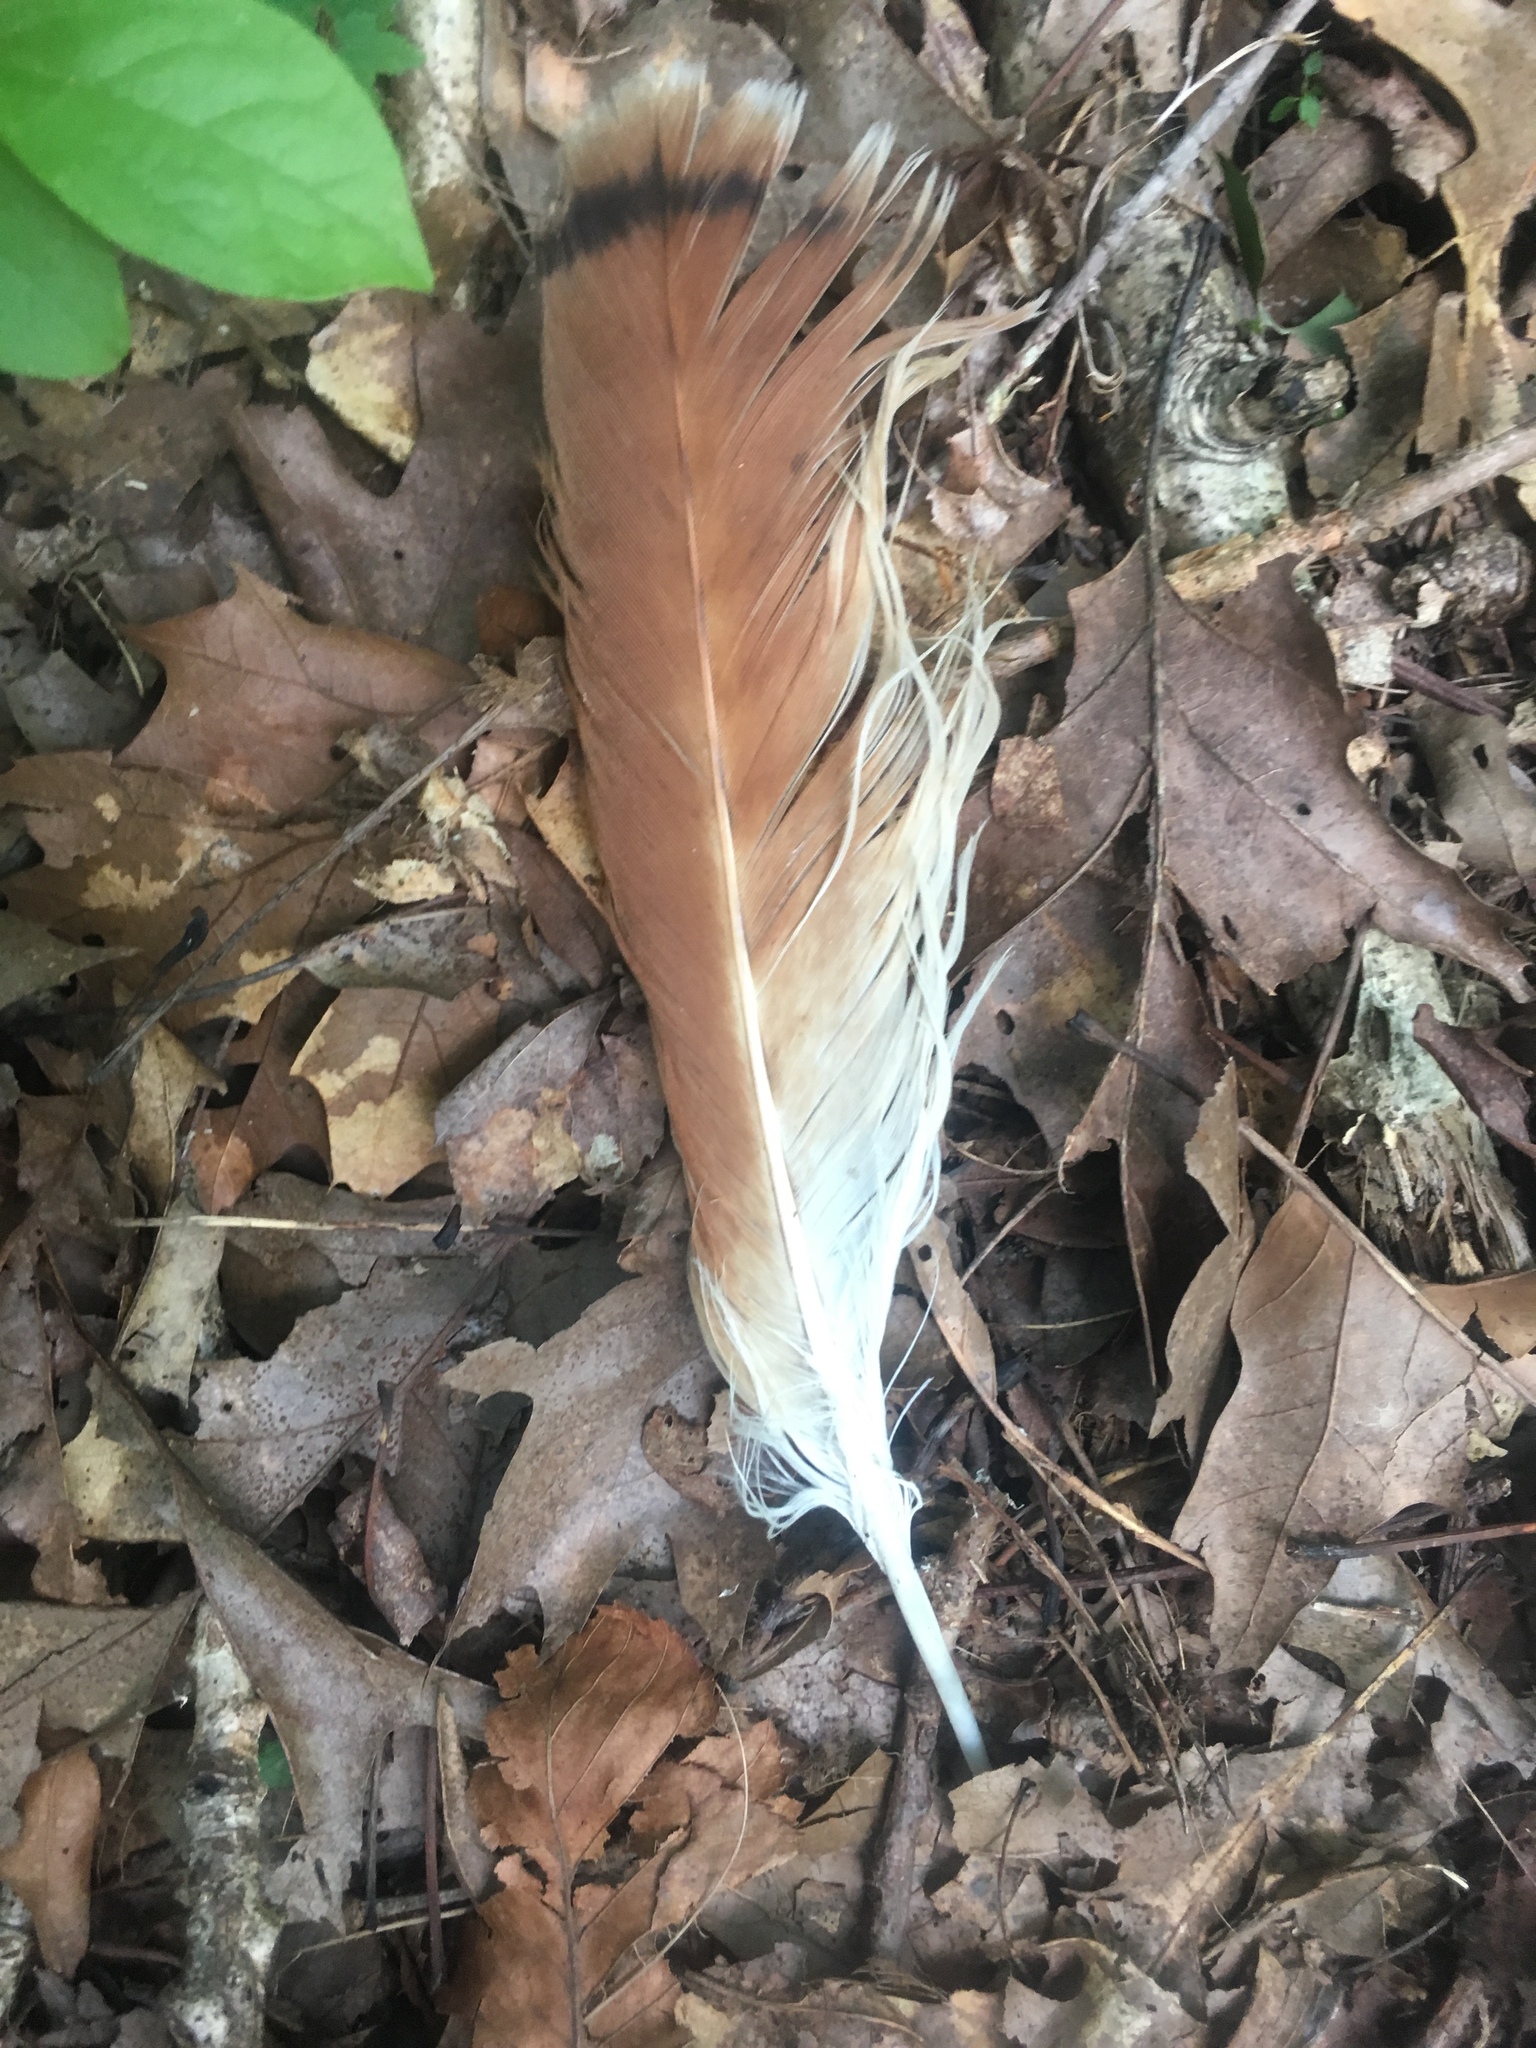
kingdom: Animalia
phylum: Chordata
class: Aves
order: Accipitriformes
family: Accipitridae
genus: Buteo
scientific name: Buteo jamaicensis
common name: Red-tailed hawk
